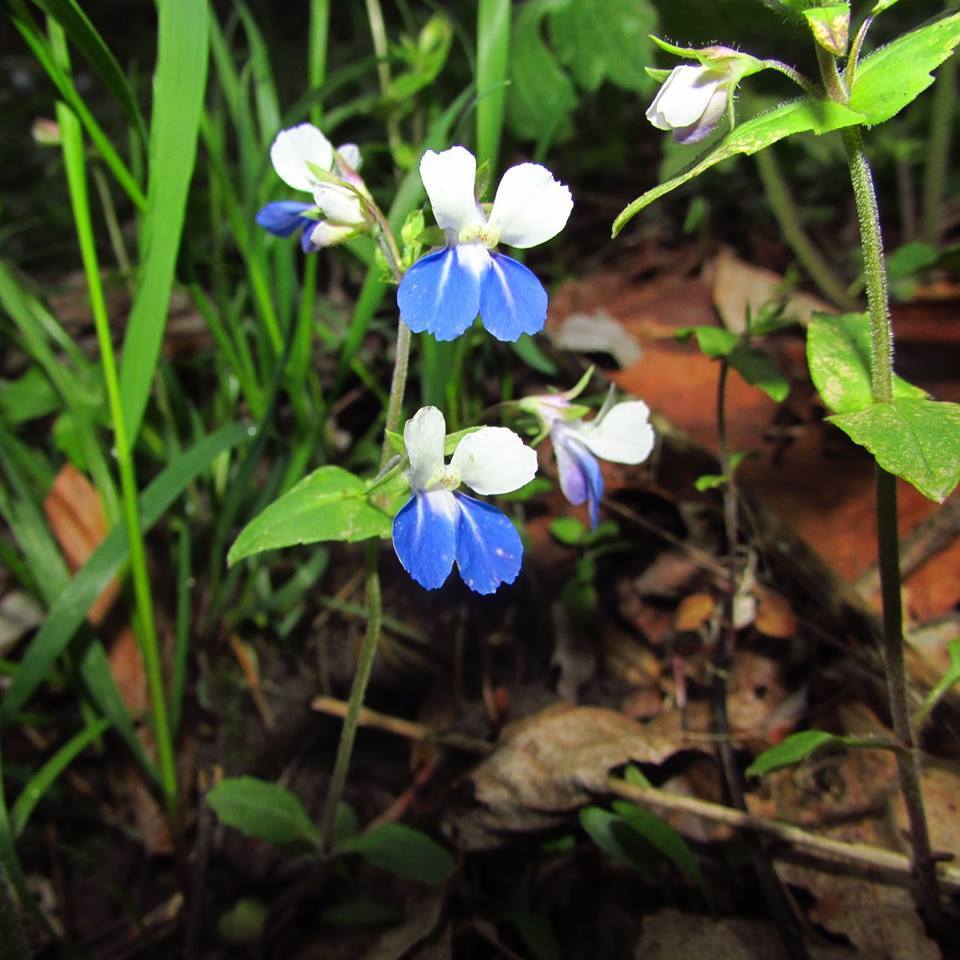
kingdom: Plantae
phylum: Tracheophyta
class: Magnoliopsida
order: Lamiales
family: Plantaginaceae
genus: Collinsia
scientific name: Collinsia verna
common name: Broad-leaved collinsia
